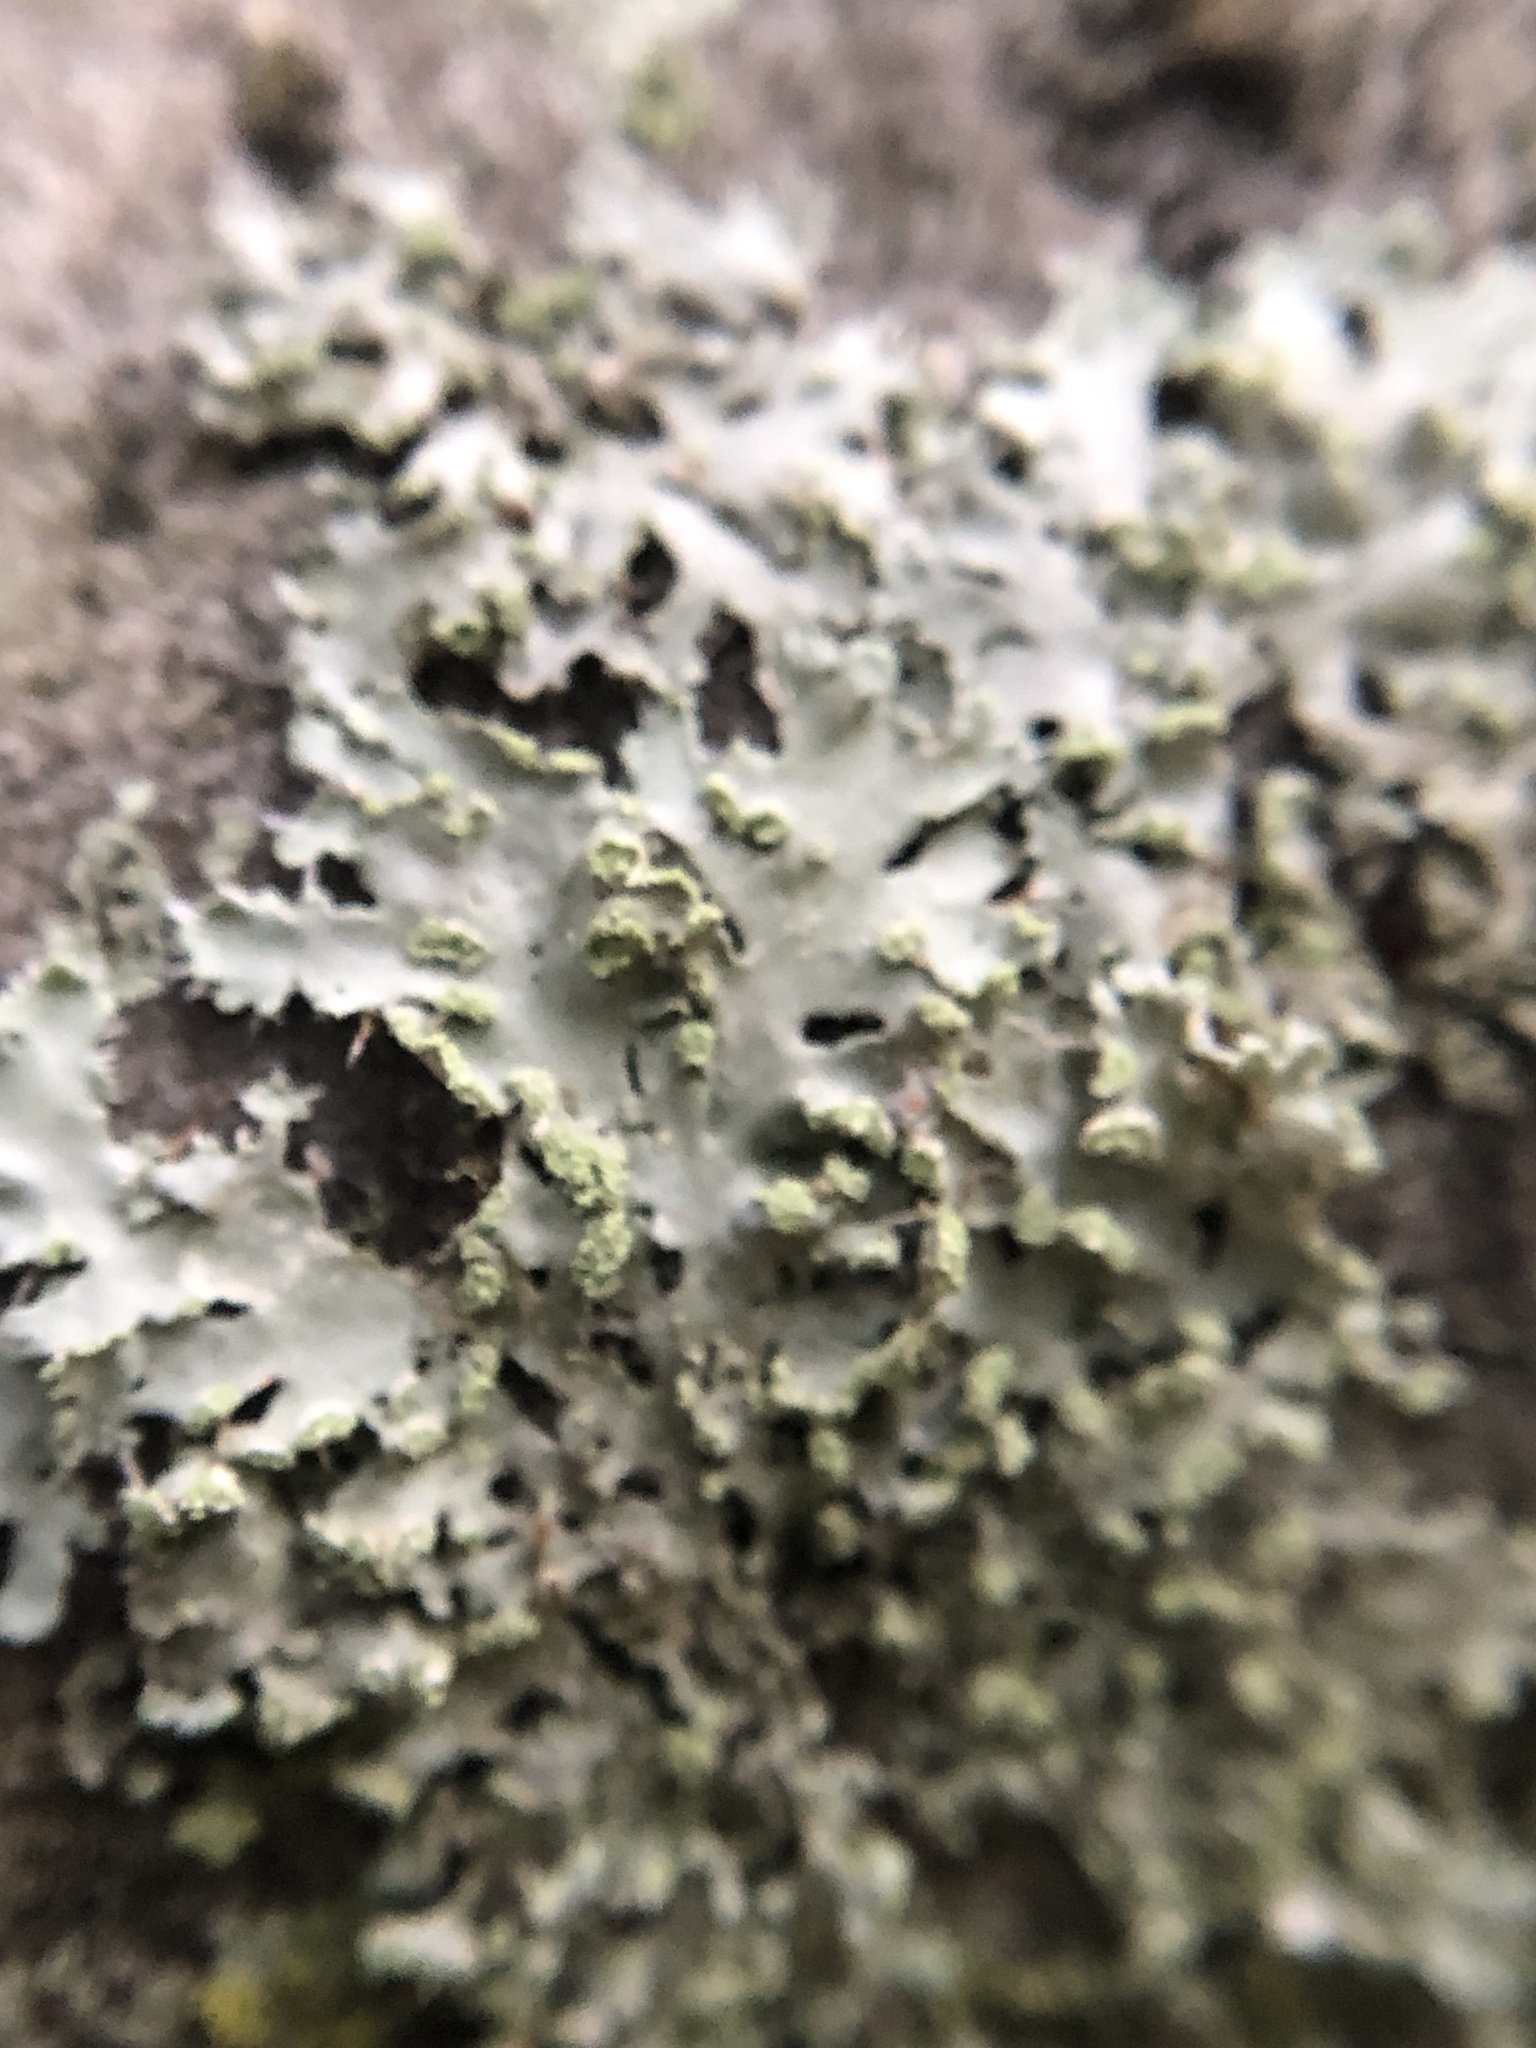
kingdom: Fungi
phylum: Ascomycota
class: Lecanoromycetes
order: Caliciales
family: Physciaceae
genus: Physciella
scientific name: Physciella melanchra
